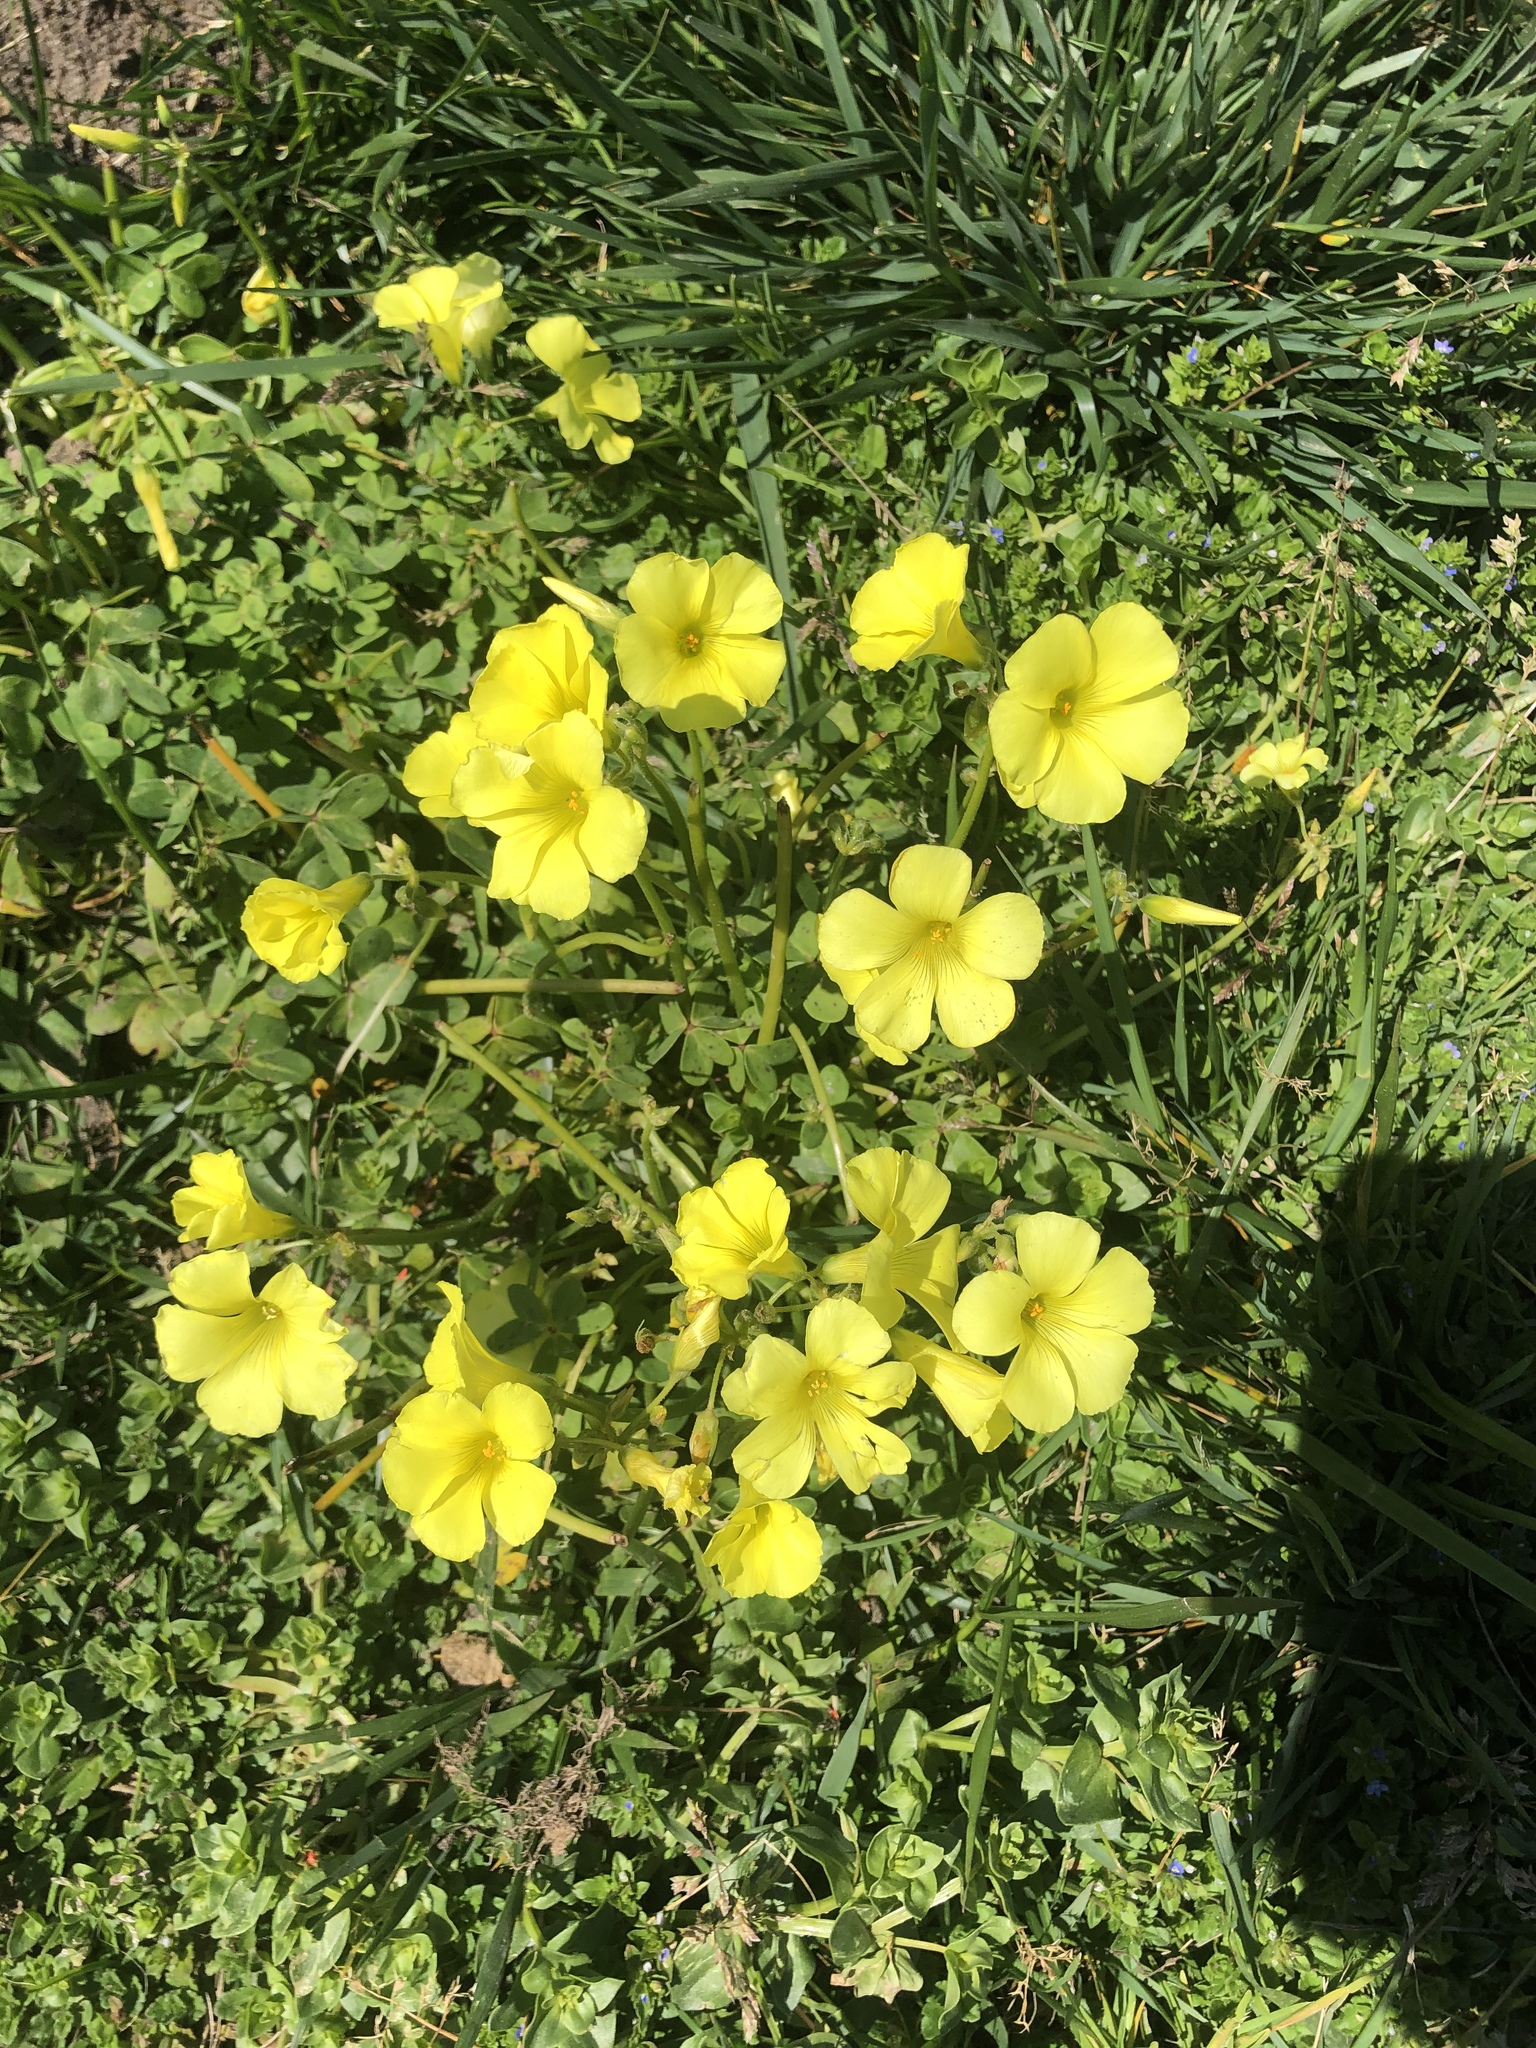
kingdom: Plantae
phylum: Tracheophyta
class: Magnoliopsida
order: Oxalidales
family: Oxalidaceae
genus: Oxalis
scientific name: Oxalis pes-caprae
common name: Bermuda-buttercup
